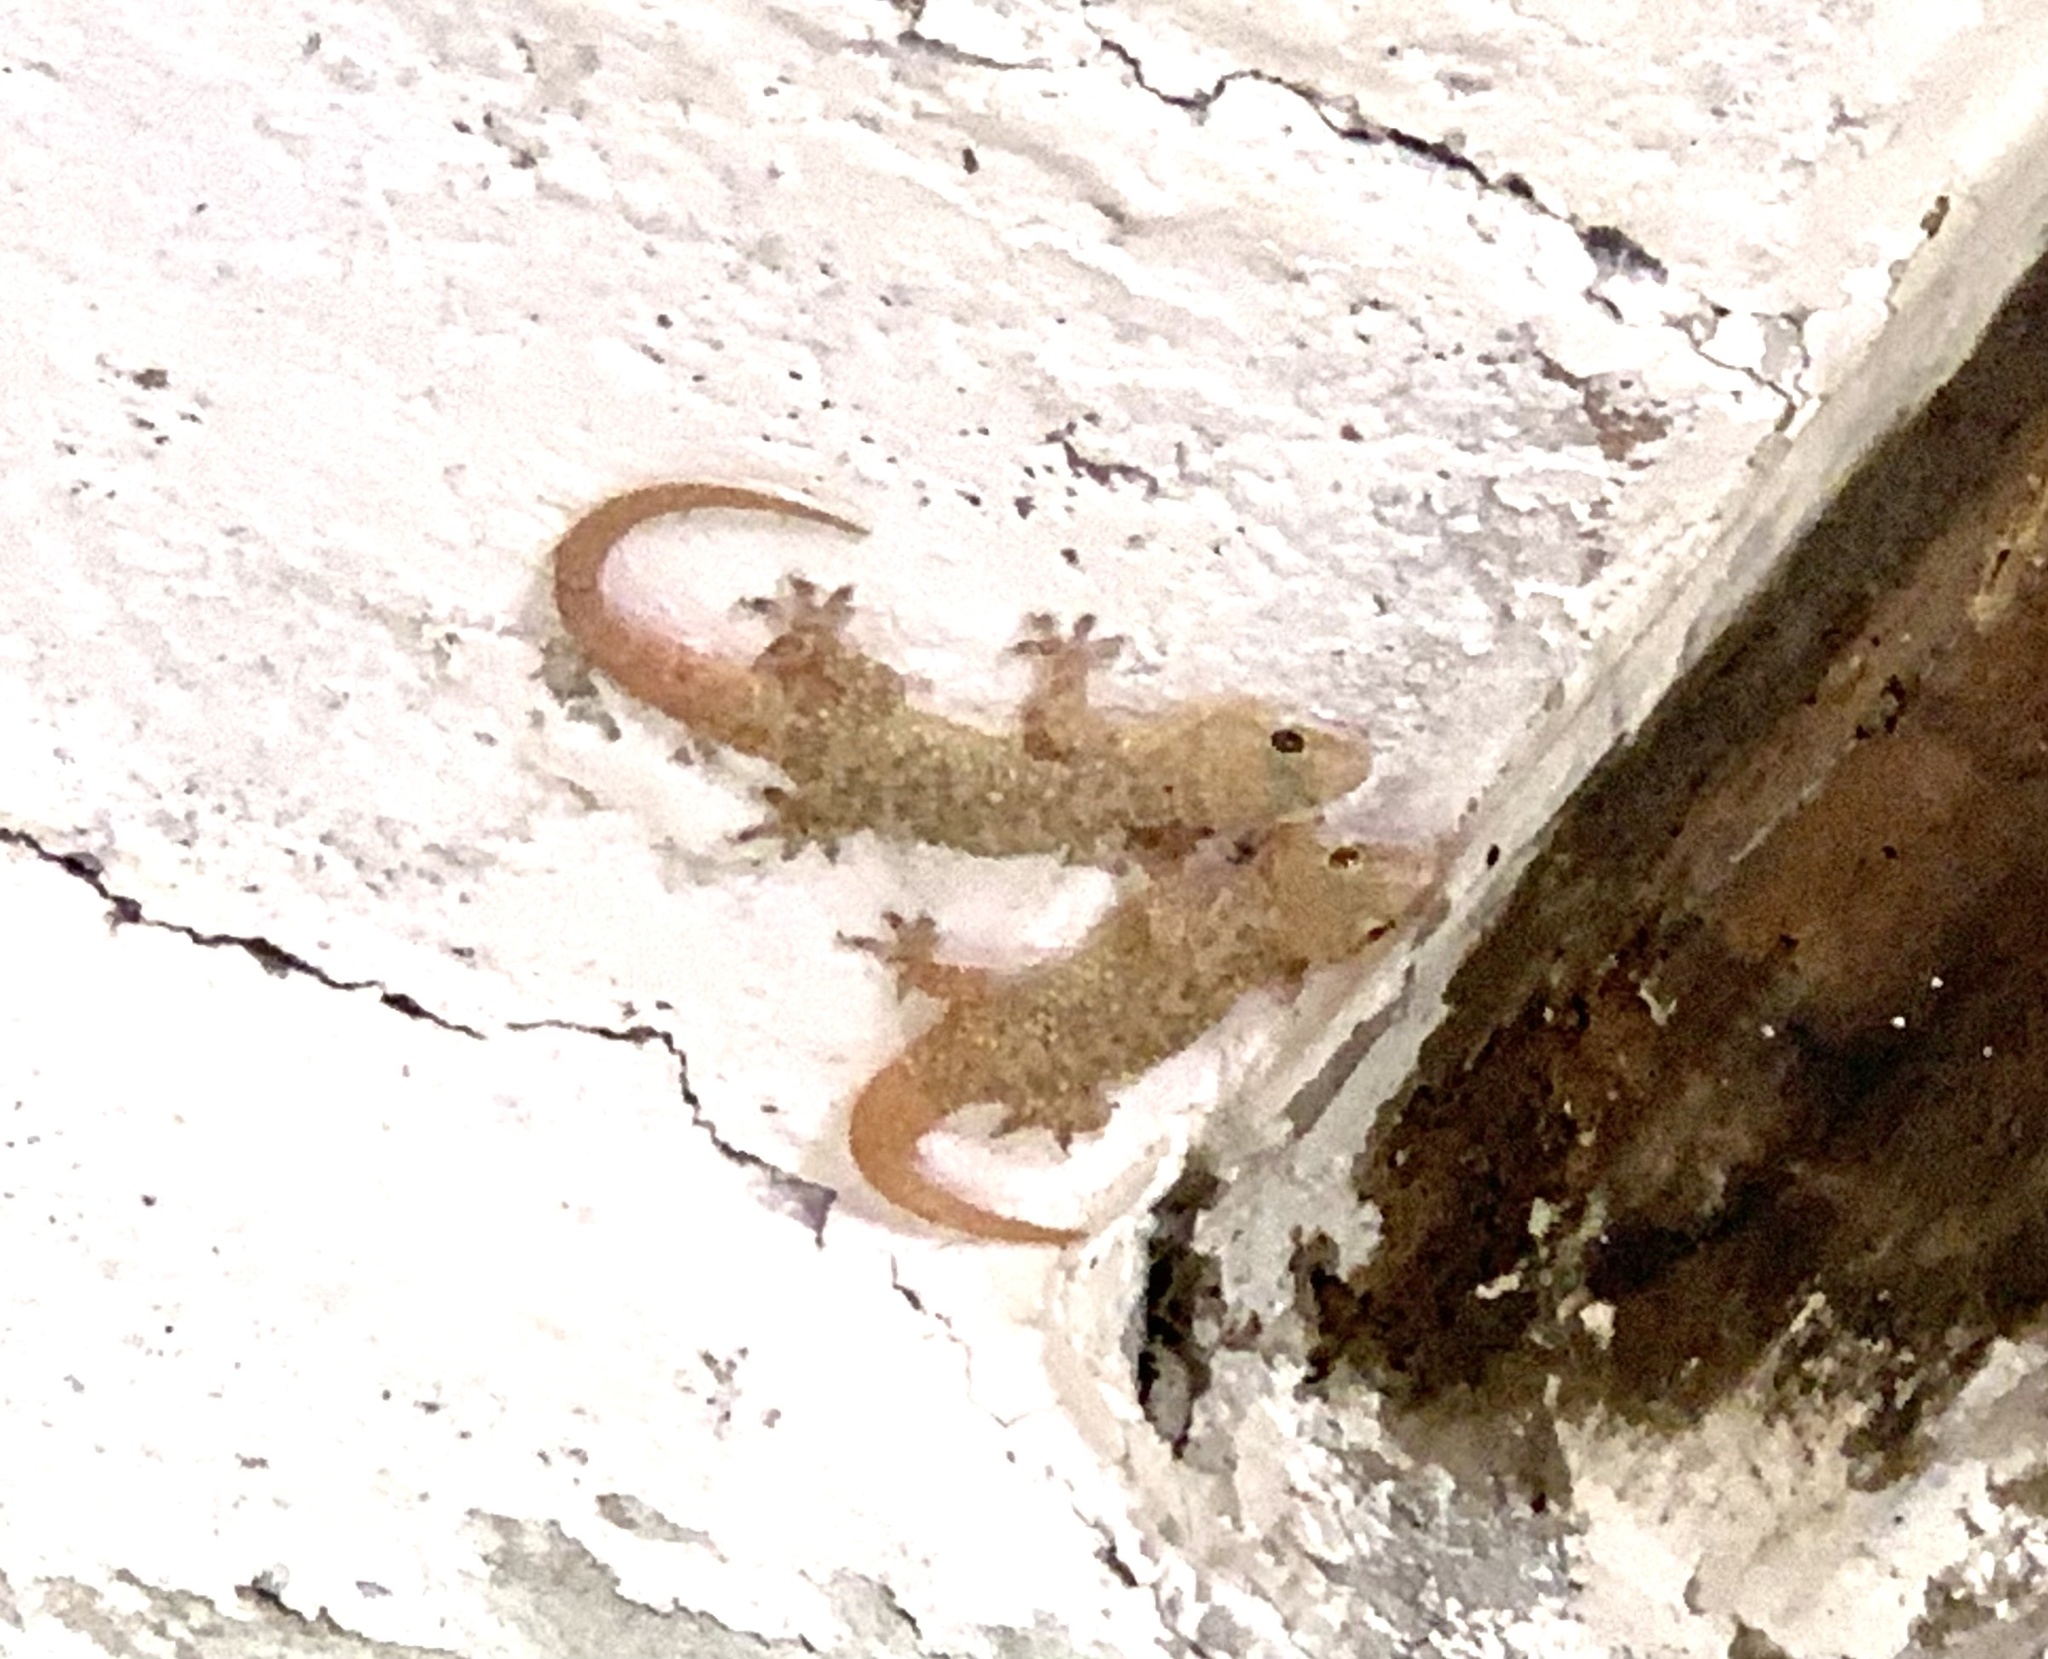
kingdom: Animalia
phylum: Chordata
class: Squamata
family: Gekkonidae
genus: Hemidactylus
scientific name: Hemidactylus turcicus
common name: Turkish gecko
